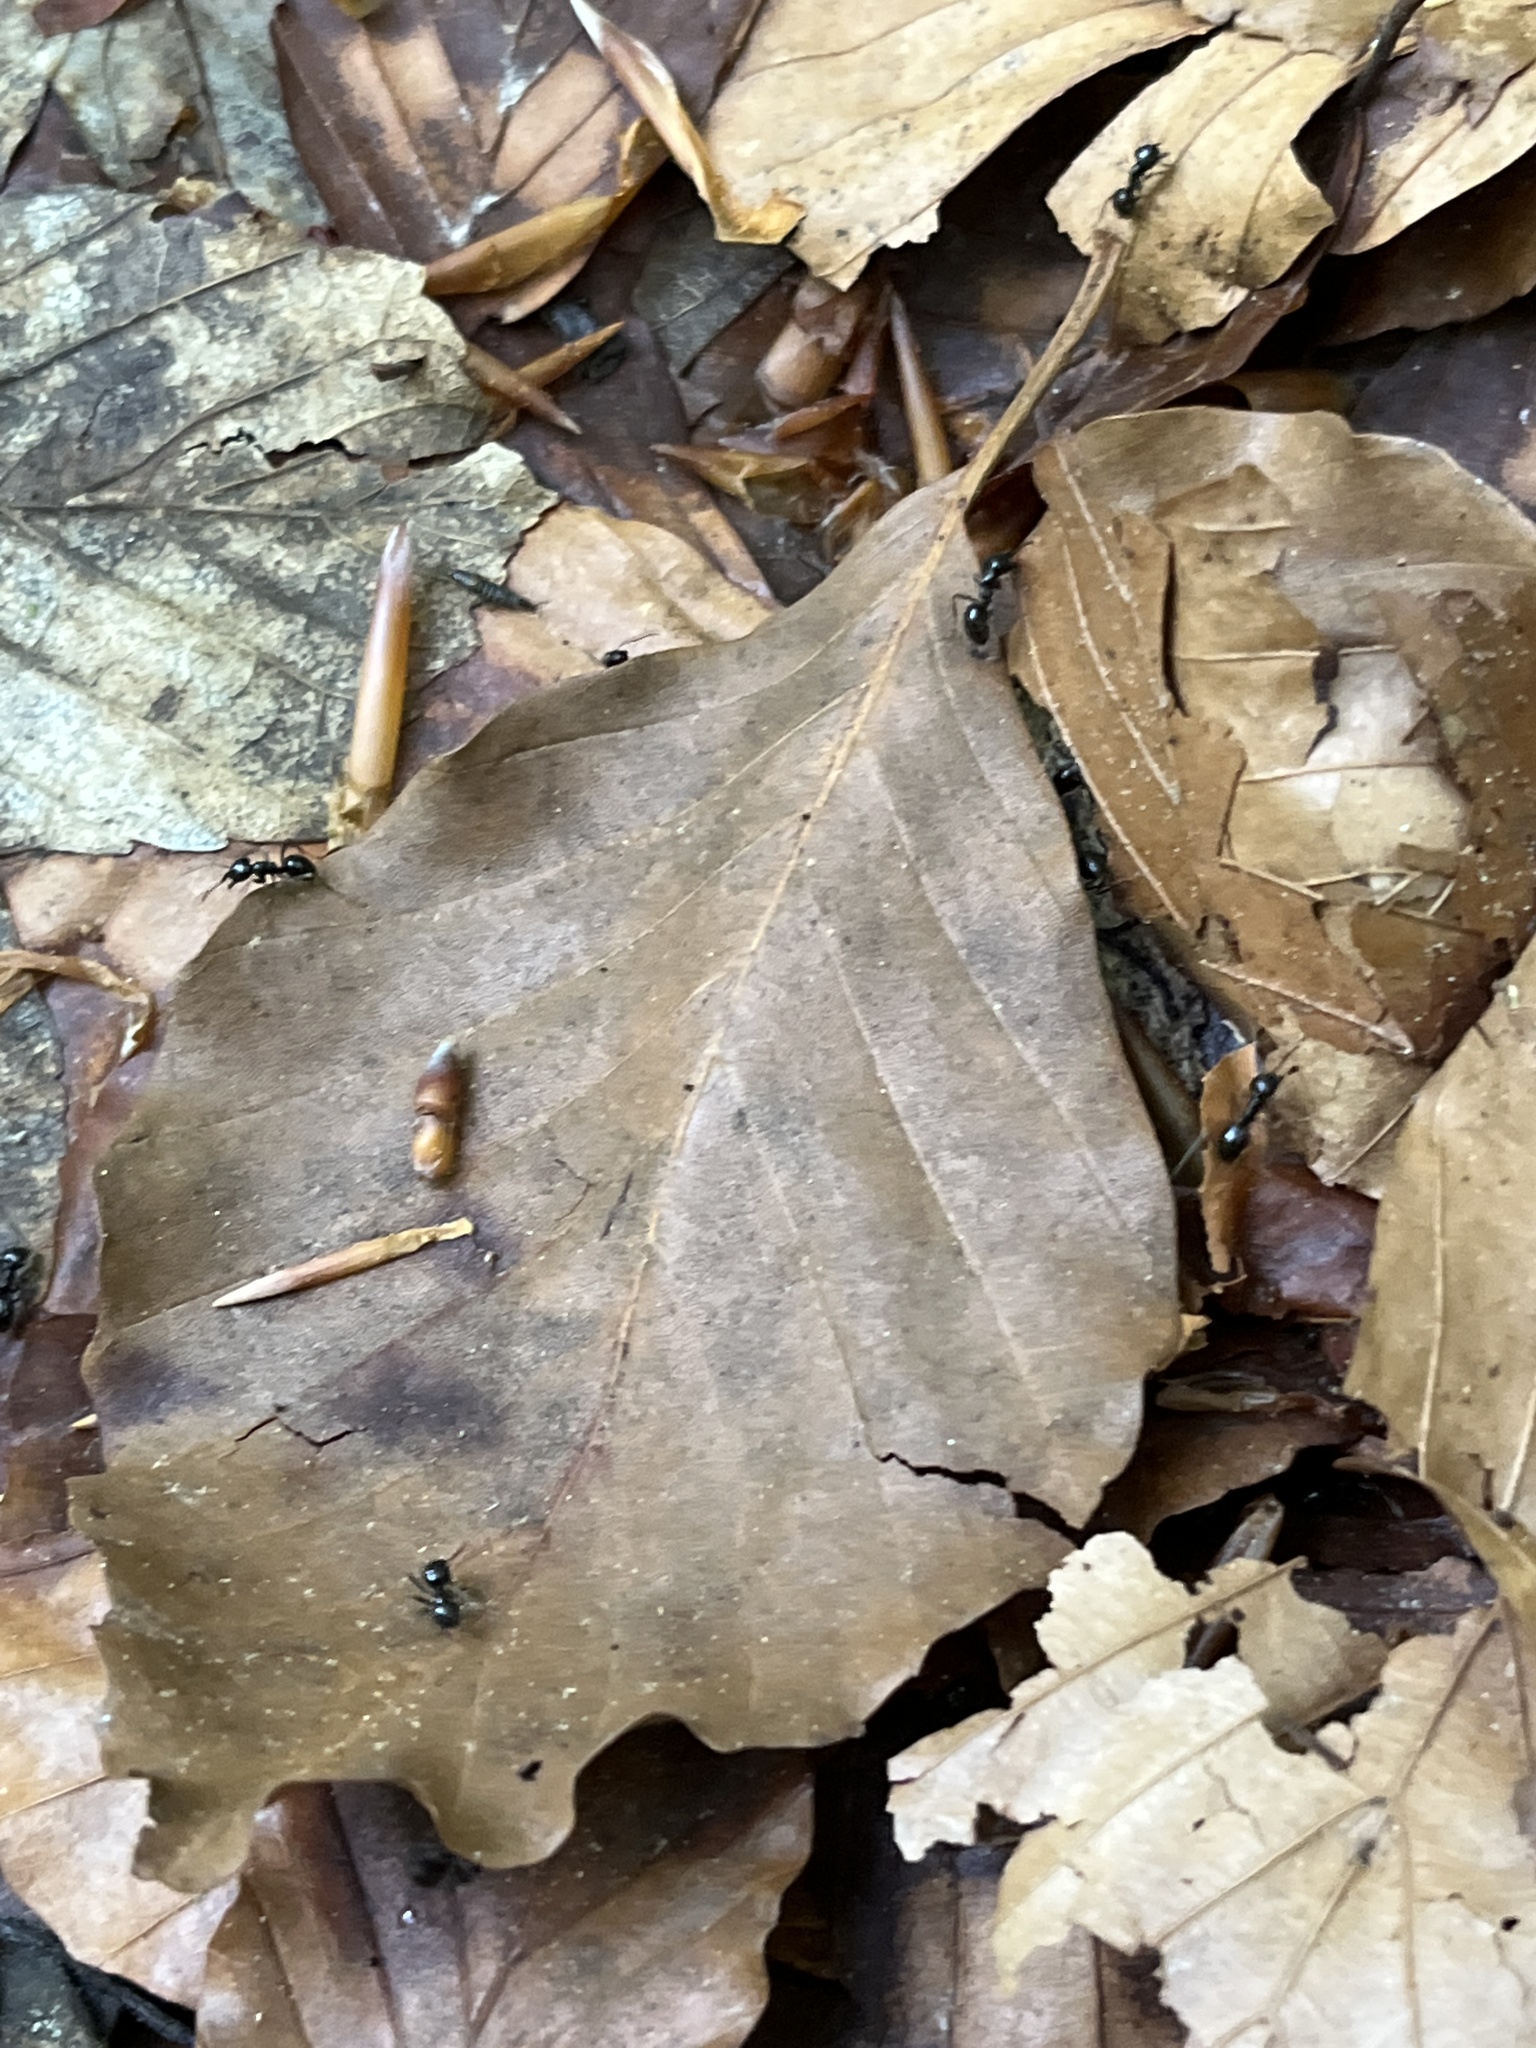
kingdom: Animalia
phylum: Arthropoda
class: Insecta
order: Hymenoptera
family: Formicidae
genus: Lasius
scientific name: Lasius fuliginosus
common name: Jet ant
